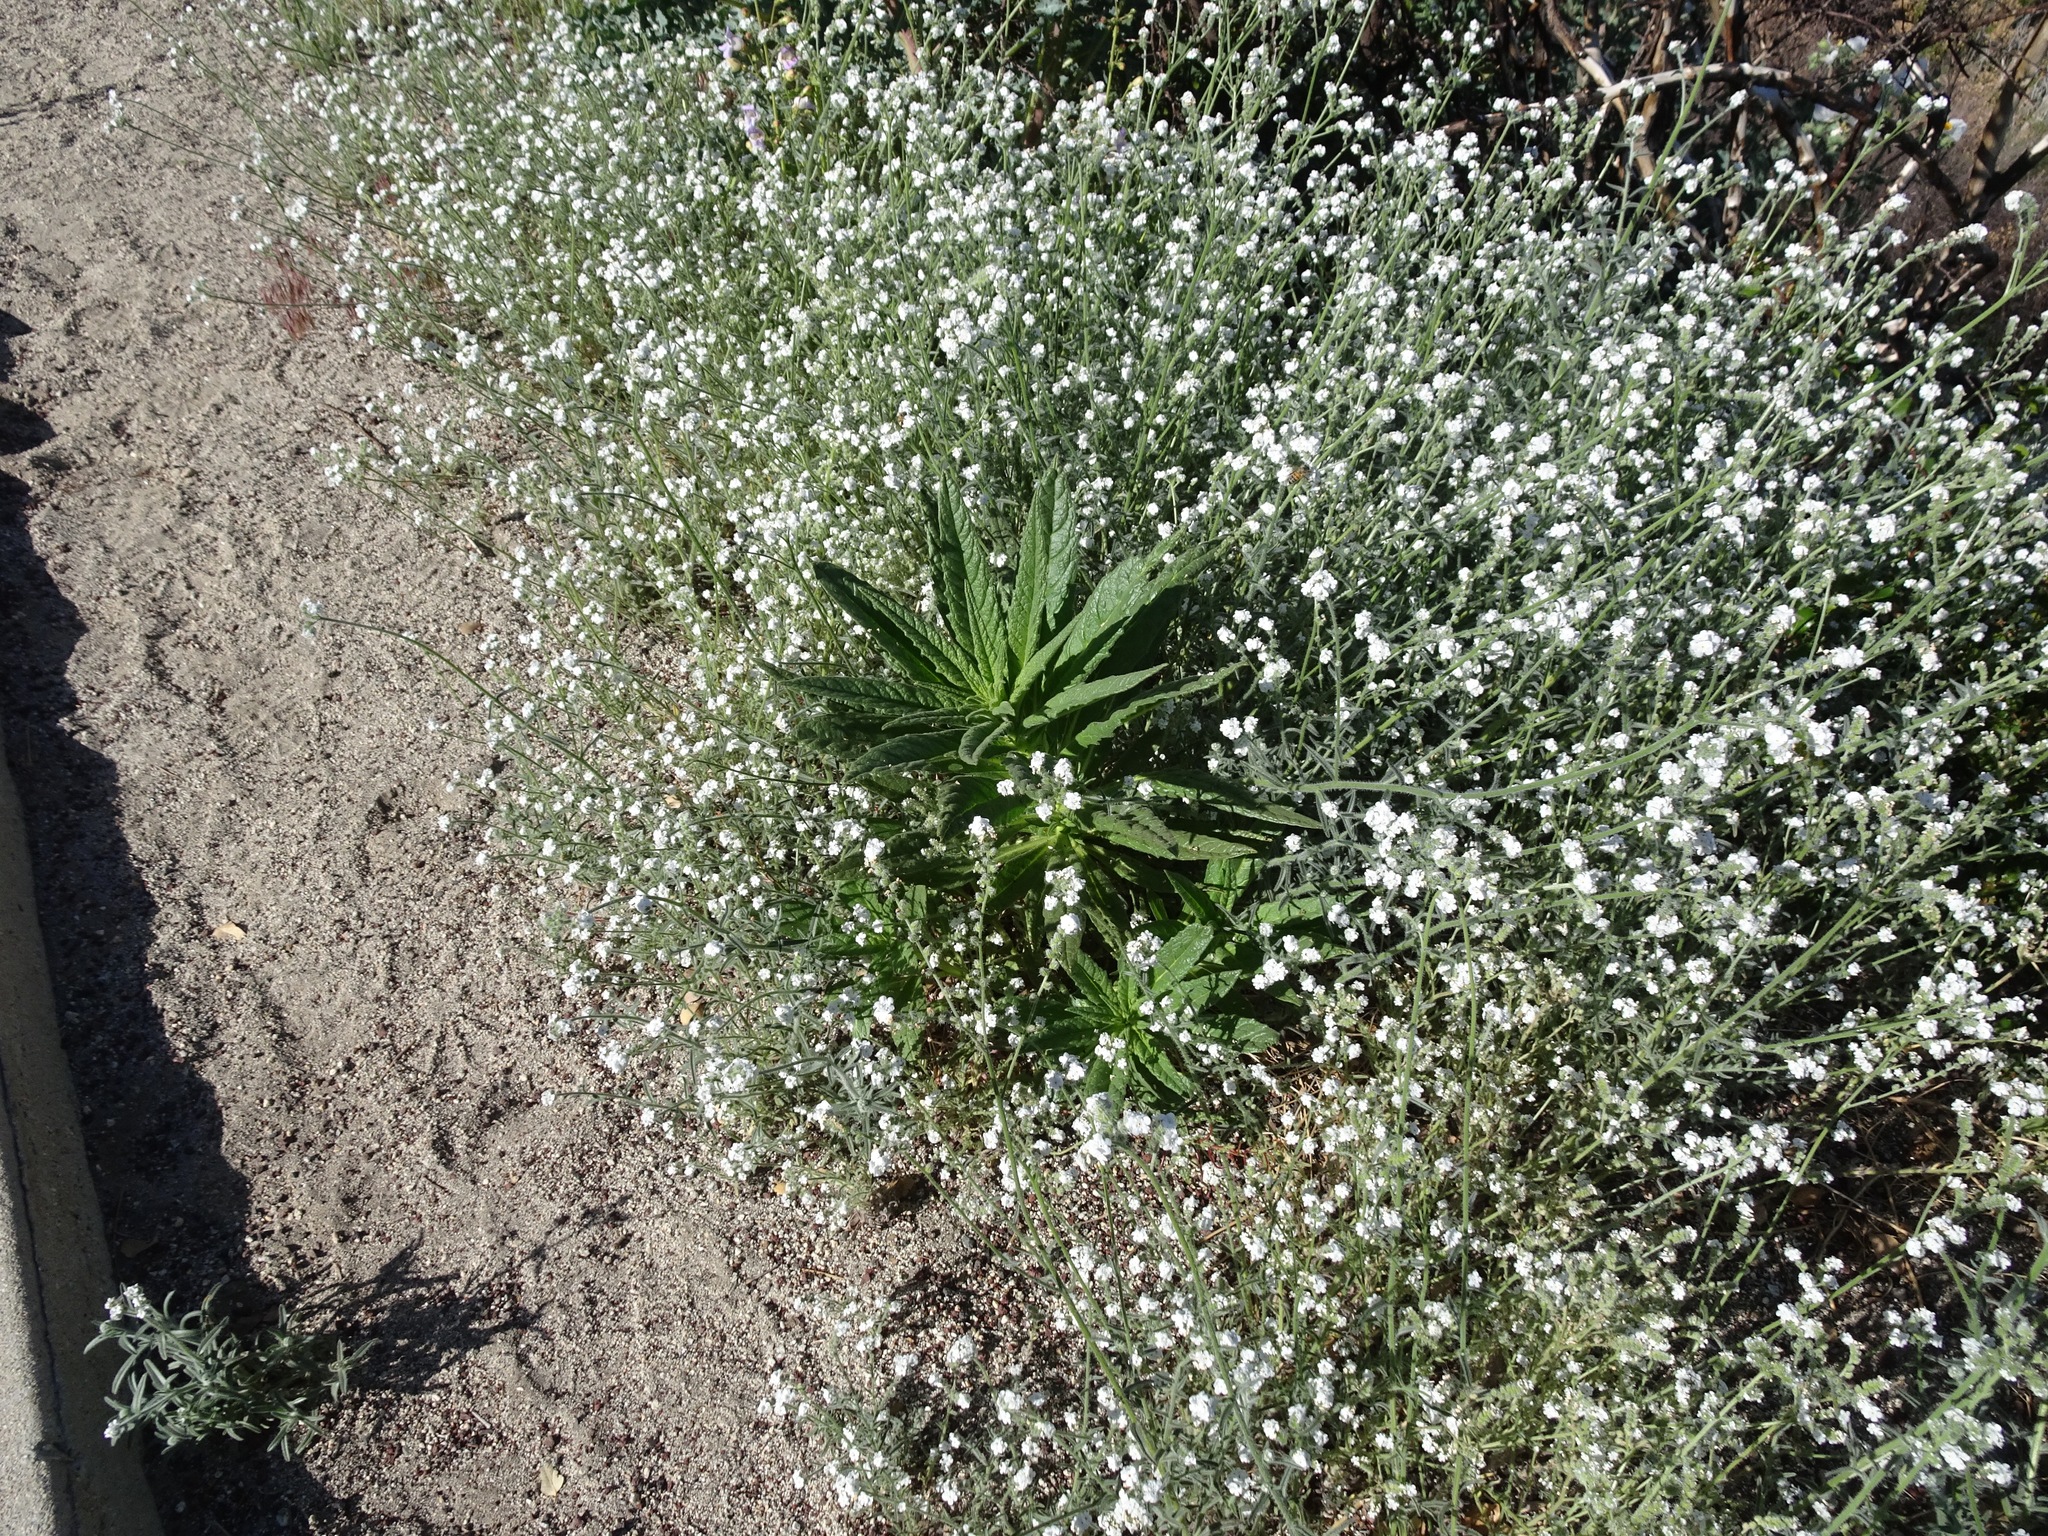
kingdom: Plantae
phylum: Tracheophyta
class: Magnoliopsida
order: Boraginales
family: Namaceae
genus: Turricula
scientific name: Turricula parryi
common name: Poodle-dog-bush
